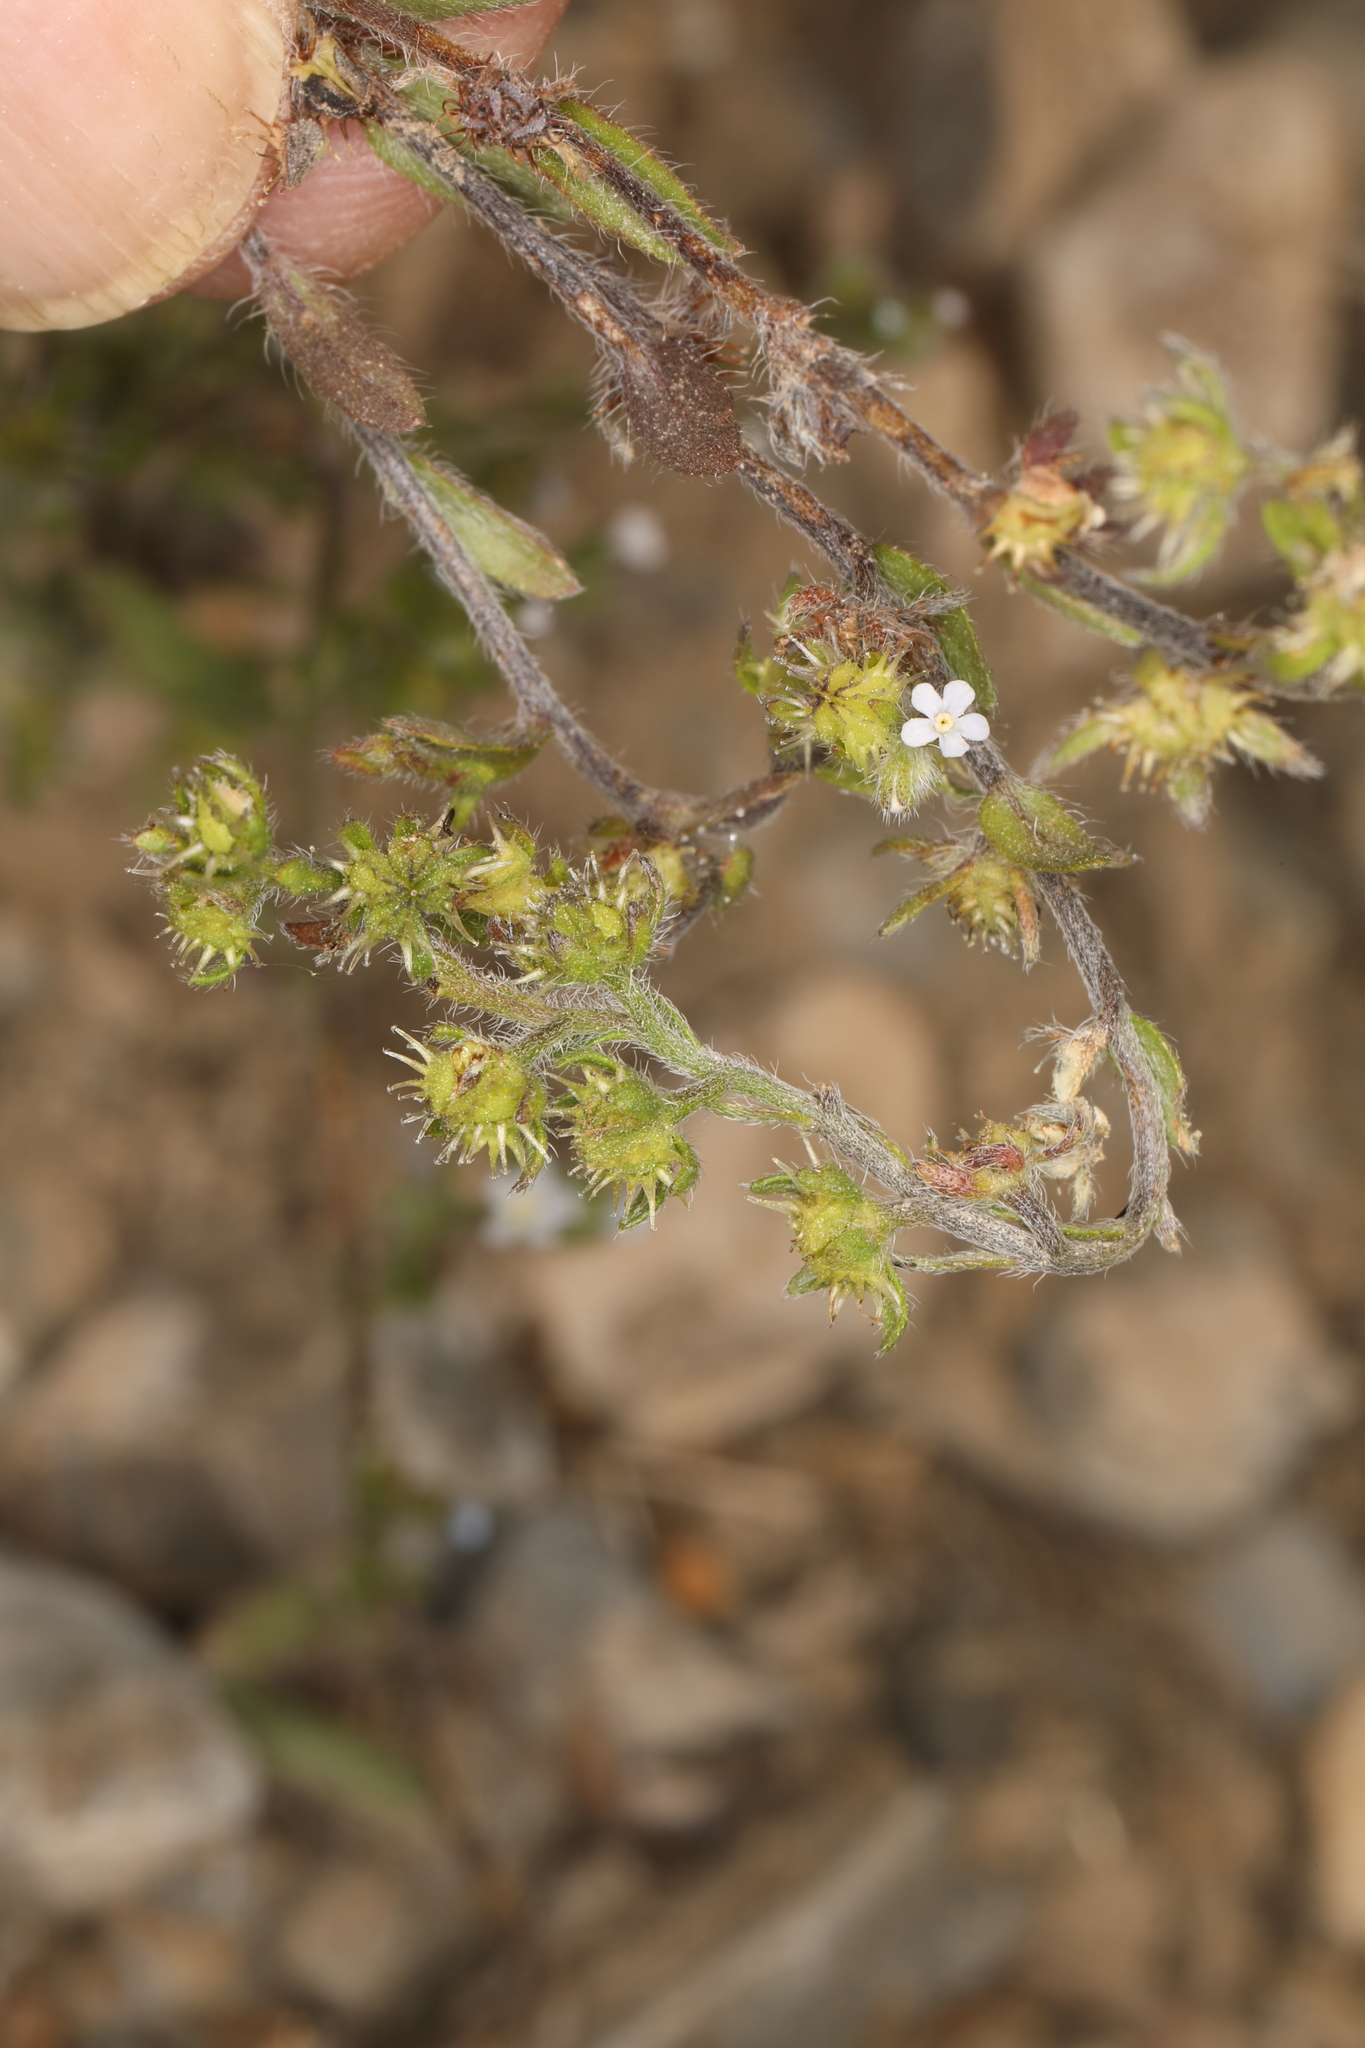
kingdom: Plantae
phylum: Tracheophyta
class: Magnoliopsida
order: Boraginales
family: Boraginaceae
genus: Lappula
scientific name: Lappula occidentalis
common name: Western stickseed
